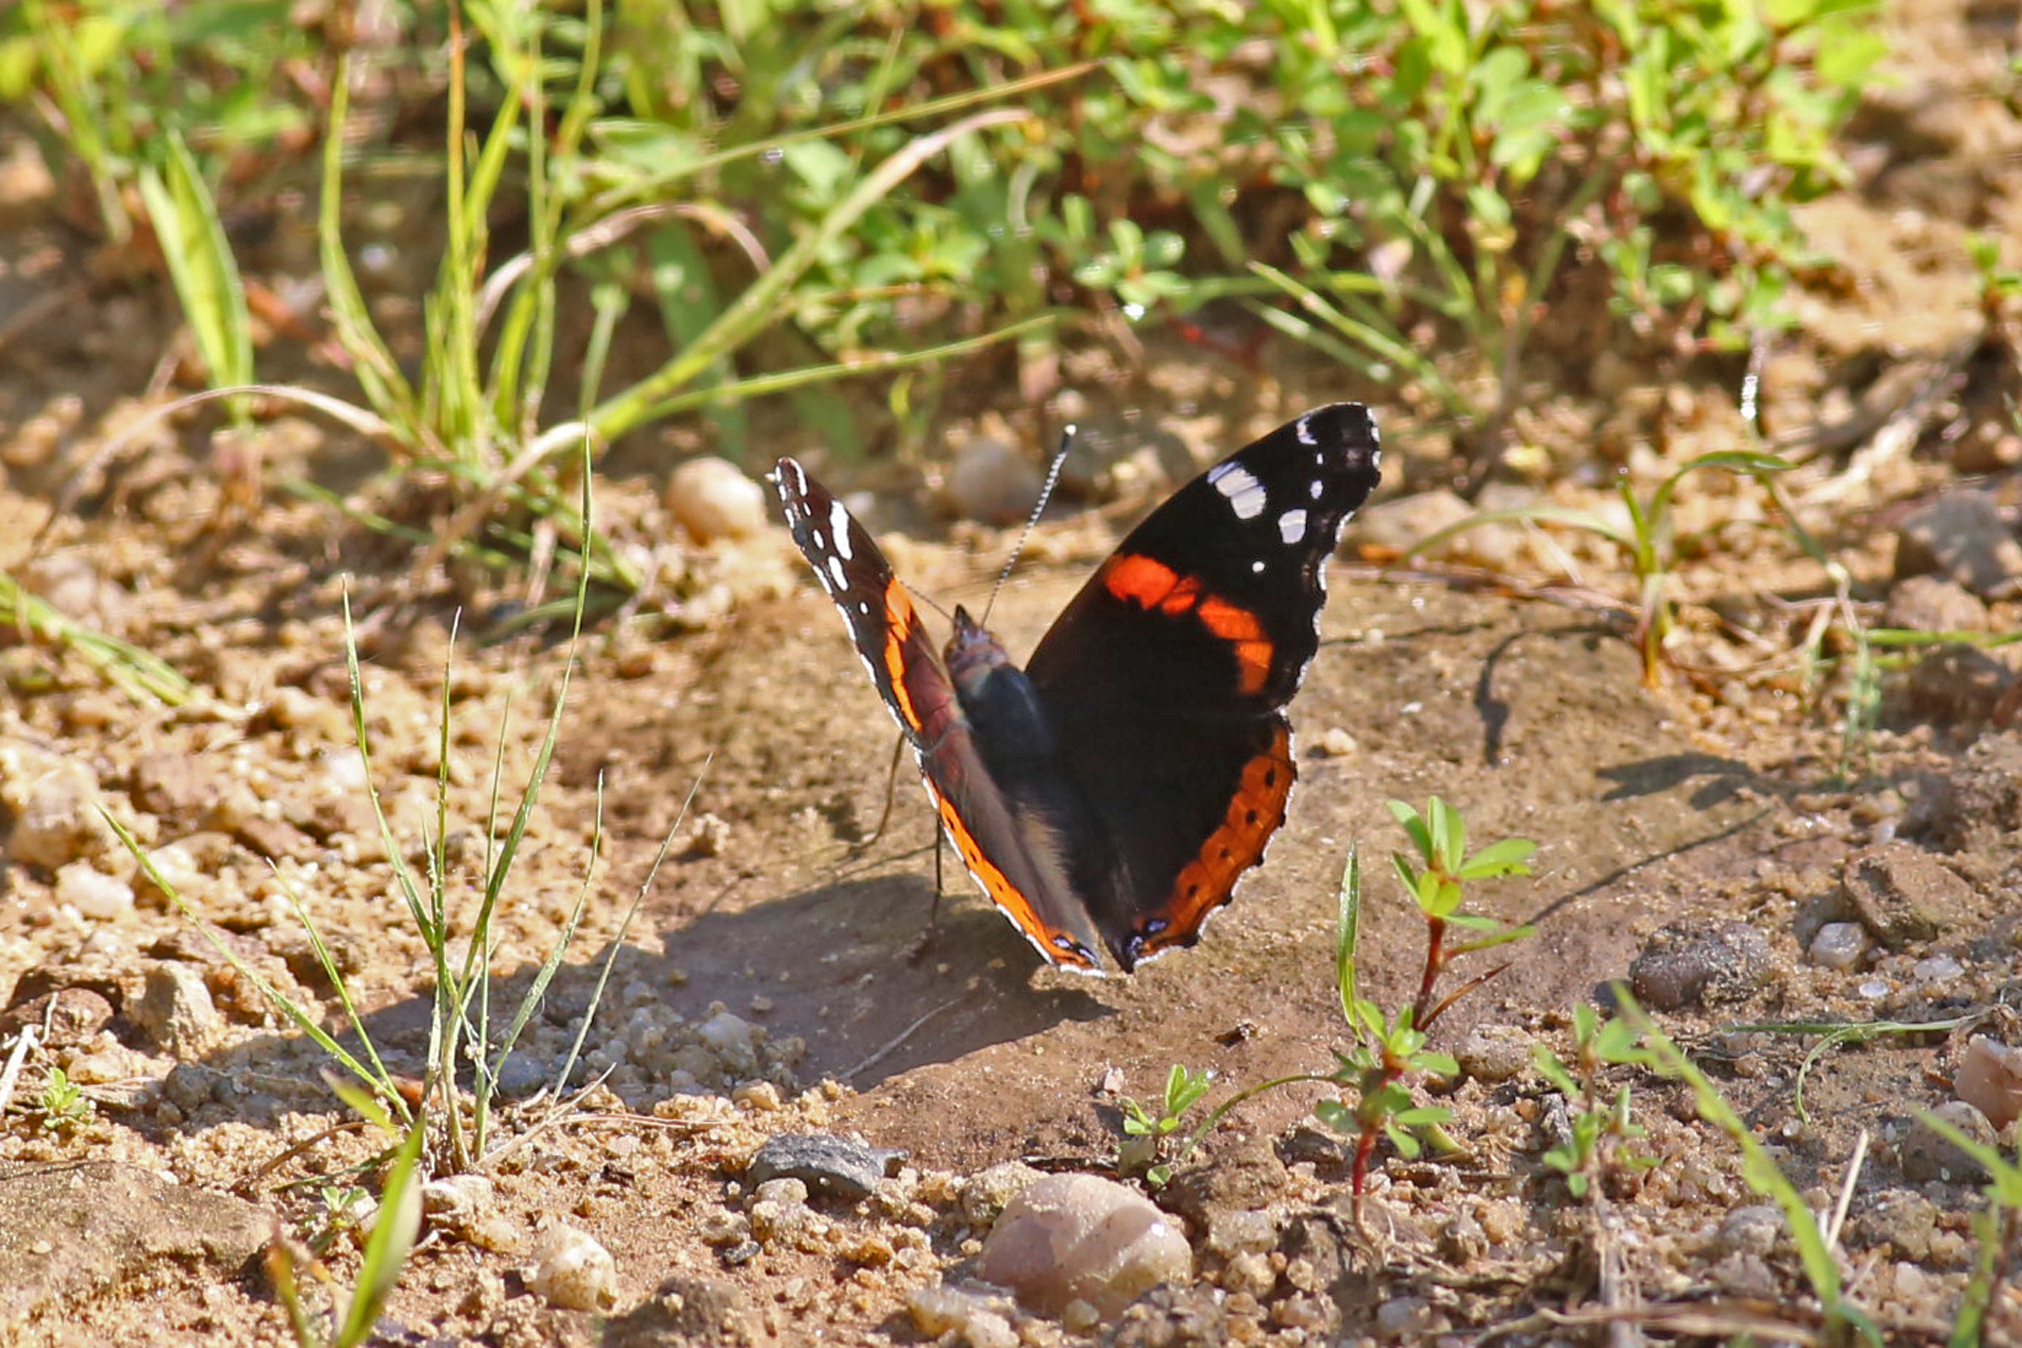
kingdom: Animalia
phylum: Arthropoda
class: Insecta
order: Lepidoptera
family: Nymphalidae
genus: Vanessa
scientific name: Vanessa atalanta
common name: Red admiral
